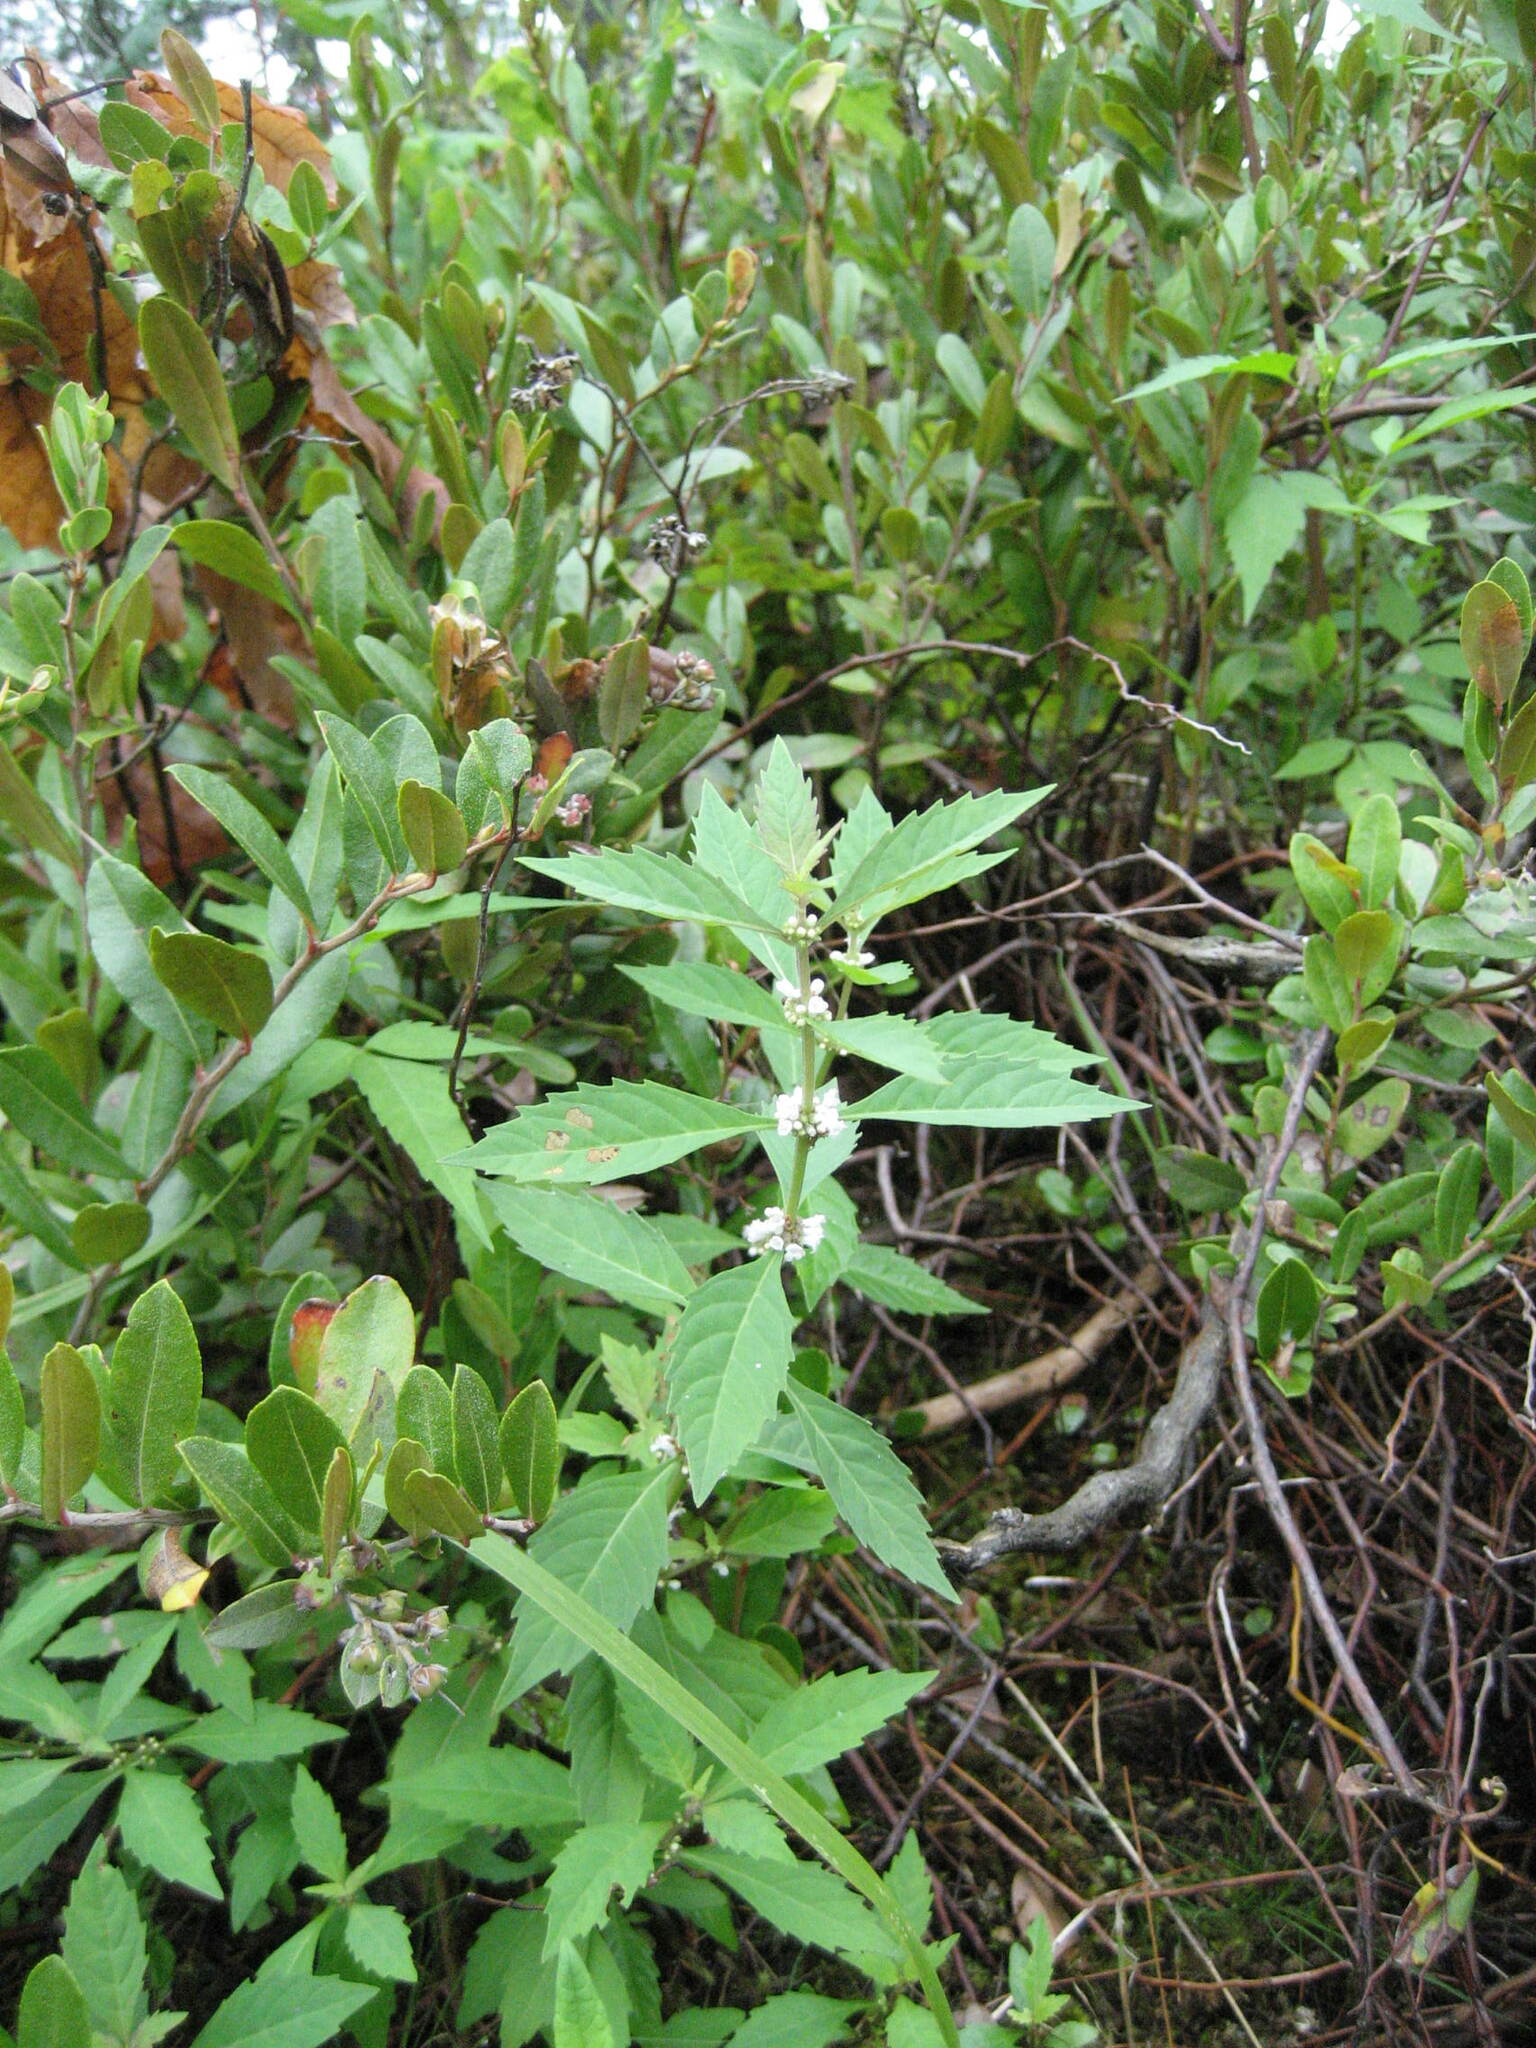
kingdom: Plantae
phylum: Tracheophyta
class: Magnoliopsida
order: Lamiales
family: Lamiaceae
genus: Lycopus
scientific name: Lycopus uniflorus
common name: Northern bugleweed
